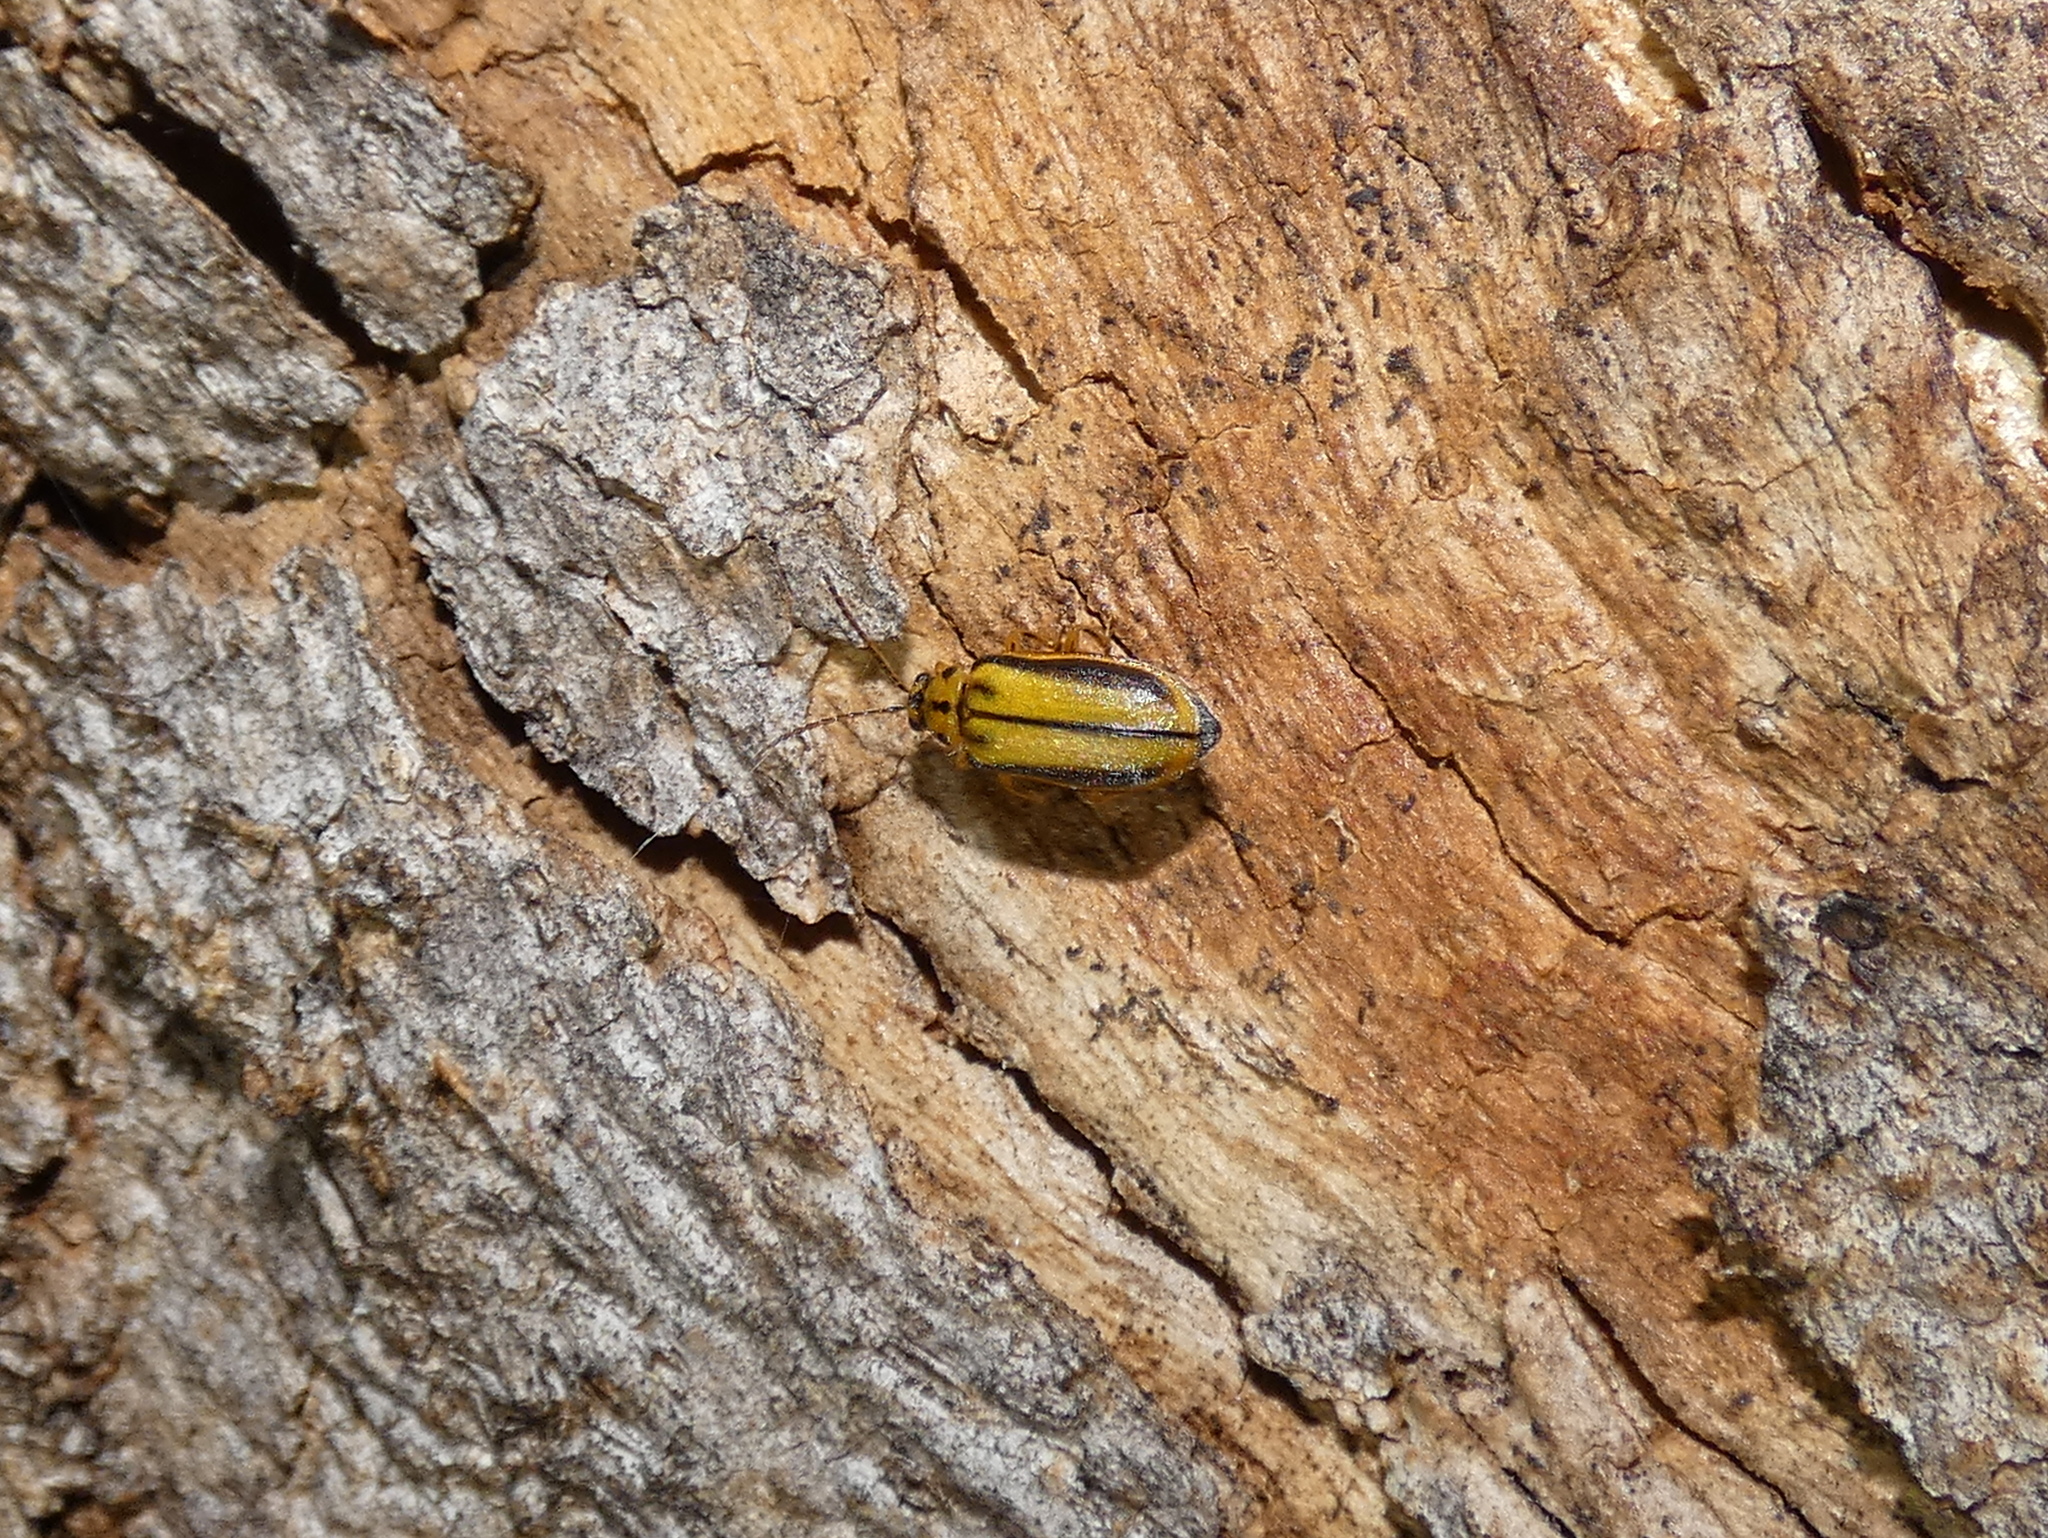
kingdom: Animalia
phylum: Arthropoda
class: Insecta
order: Coleoptera
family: Chrysomelidae
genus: Xanthogaleruca
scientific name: Xanthogaleruca luteola
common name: Elm leaf beetle
